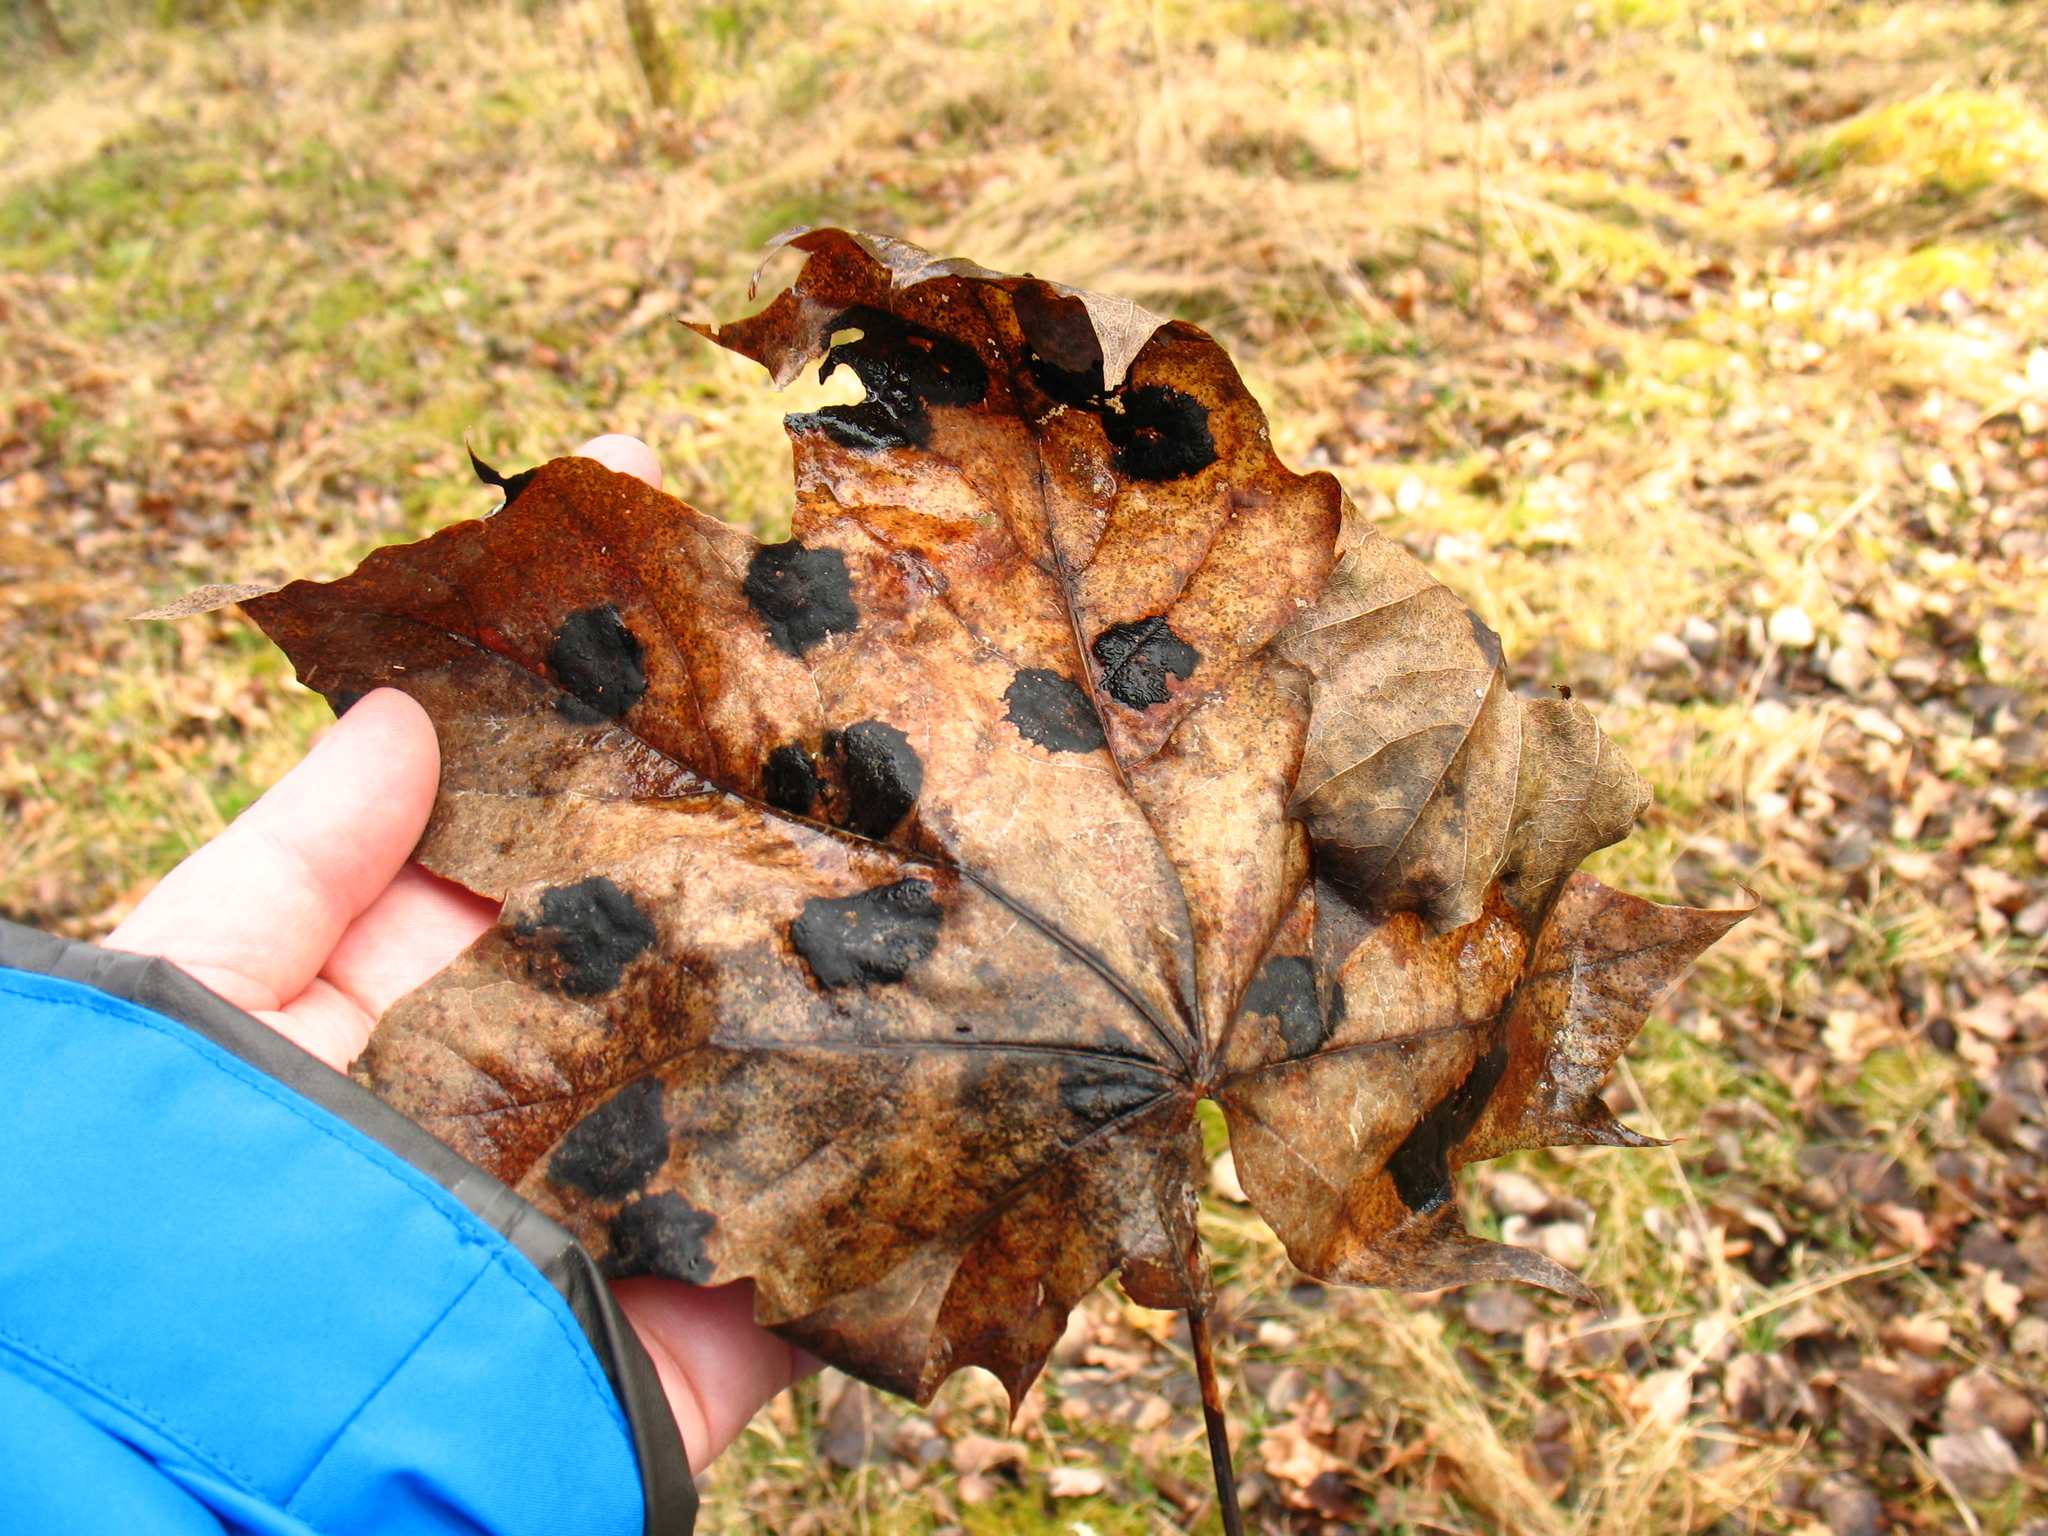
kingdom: Fungi
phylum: Ascomycota
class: Leotiomycetes
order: Rhytismatales
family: Rhytismataceae
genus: Rhytisma
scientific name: Rhytisma acerinum
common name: European tar spot
